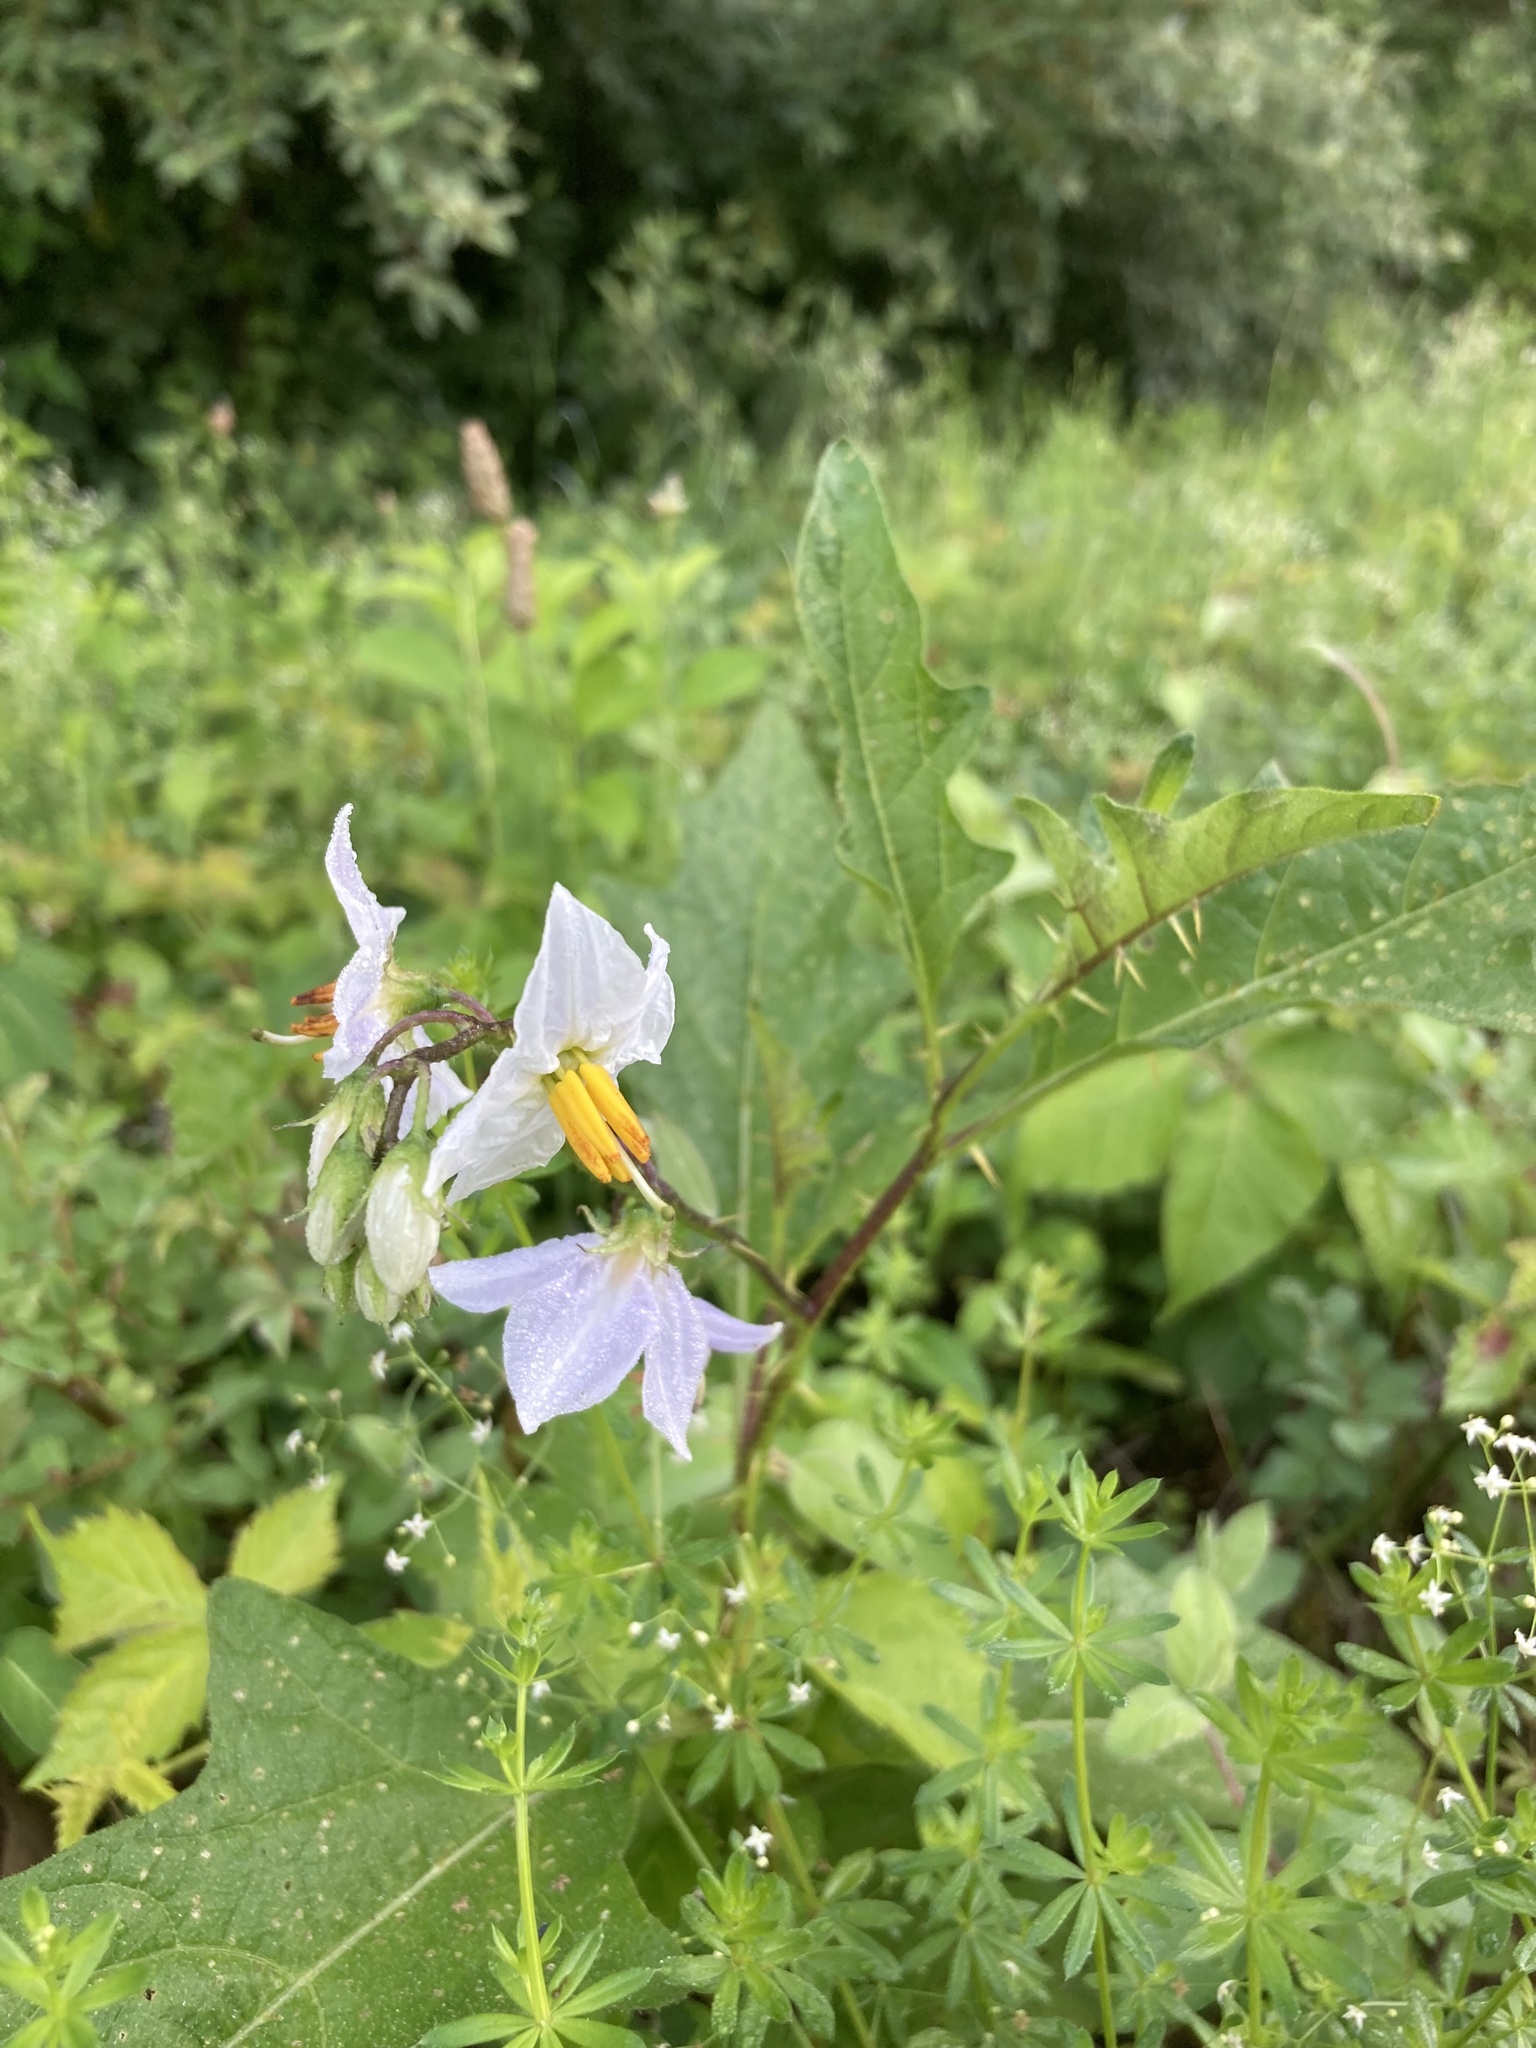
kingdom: Plantae
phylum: Tracheophyta
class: Magnoliopsida
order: Solanales
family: Solanaceae
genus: Solanum
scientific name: Solanum carolinense
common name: Horse-nettle
